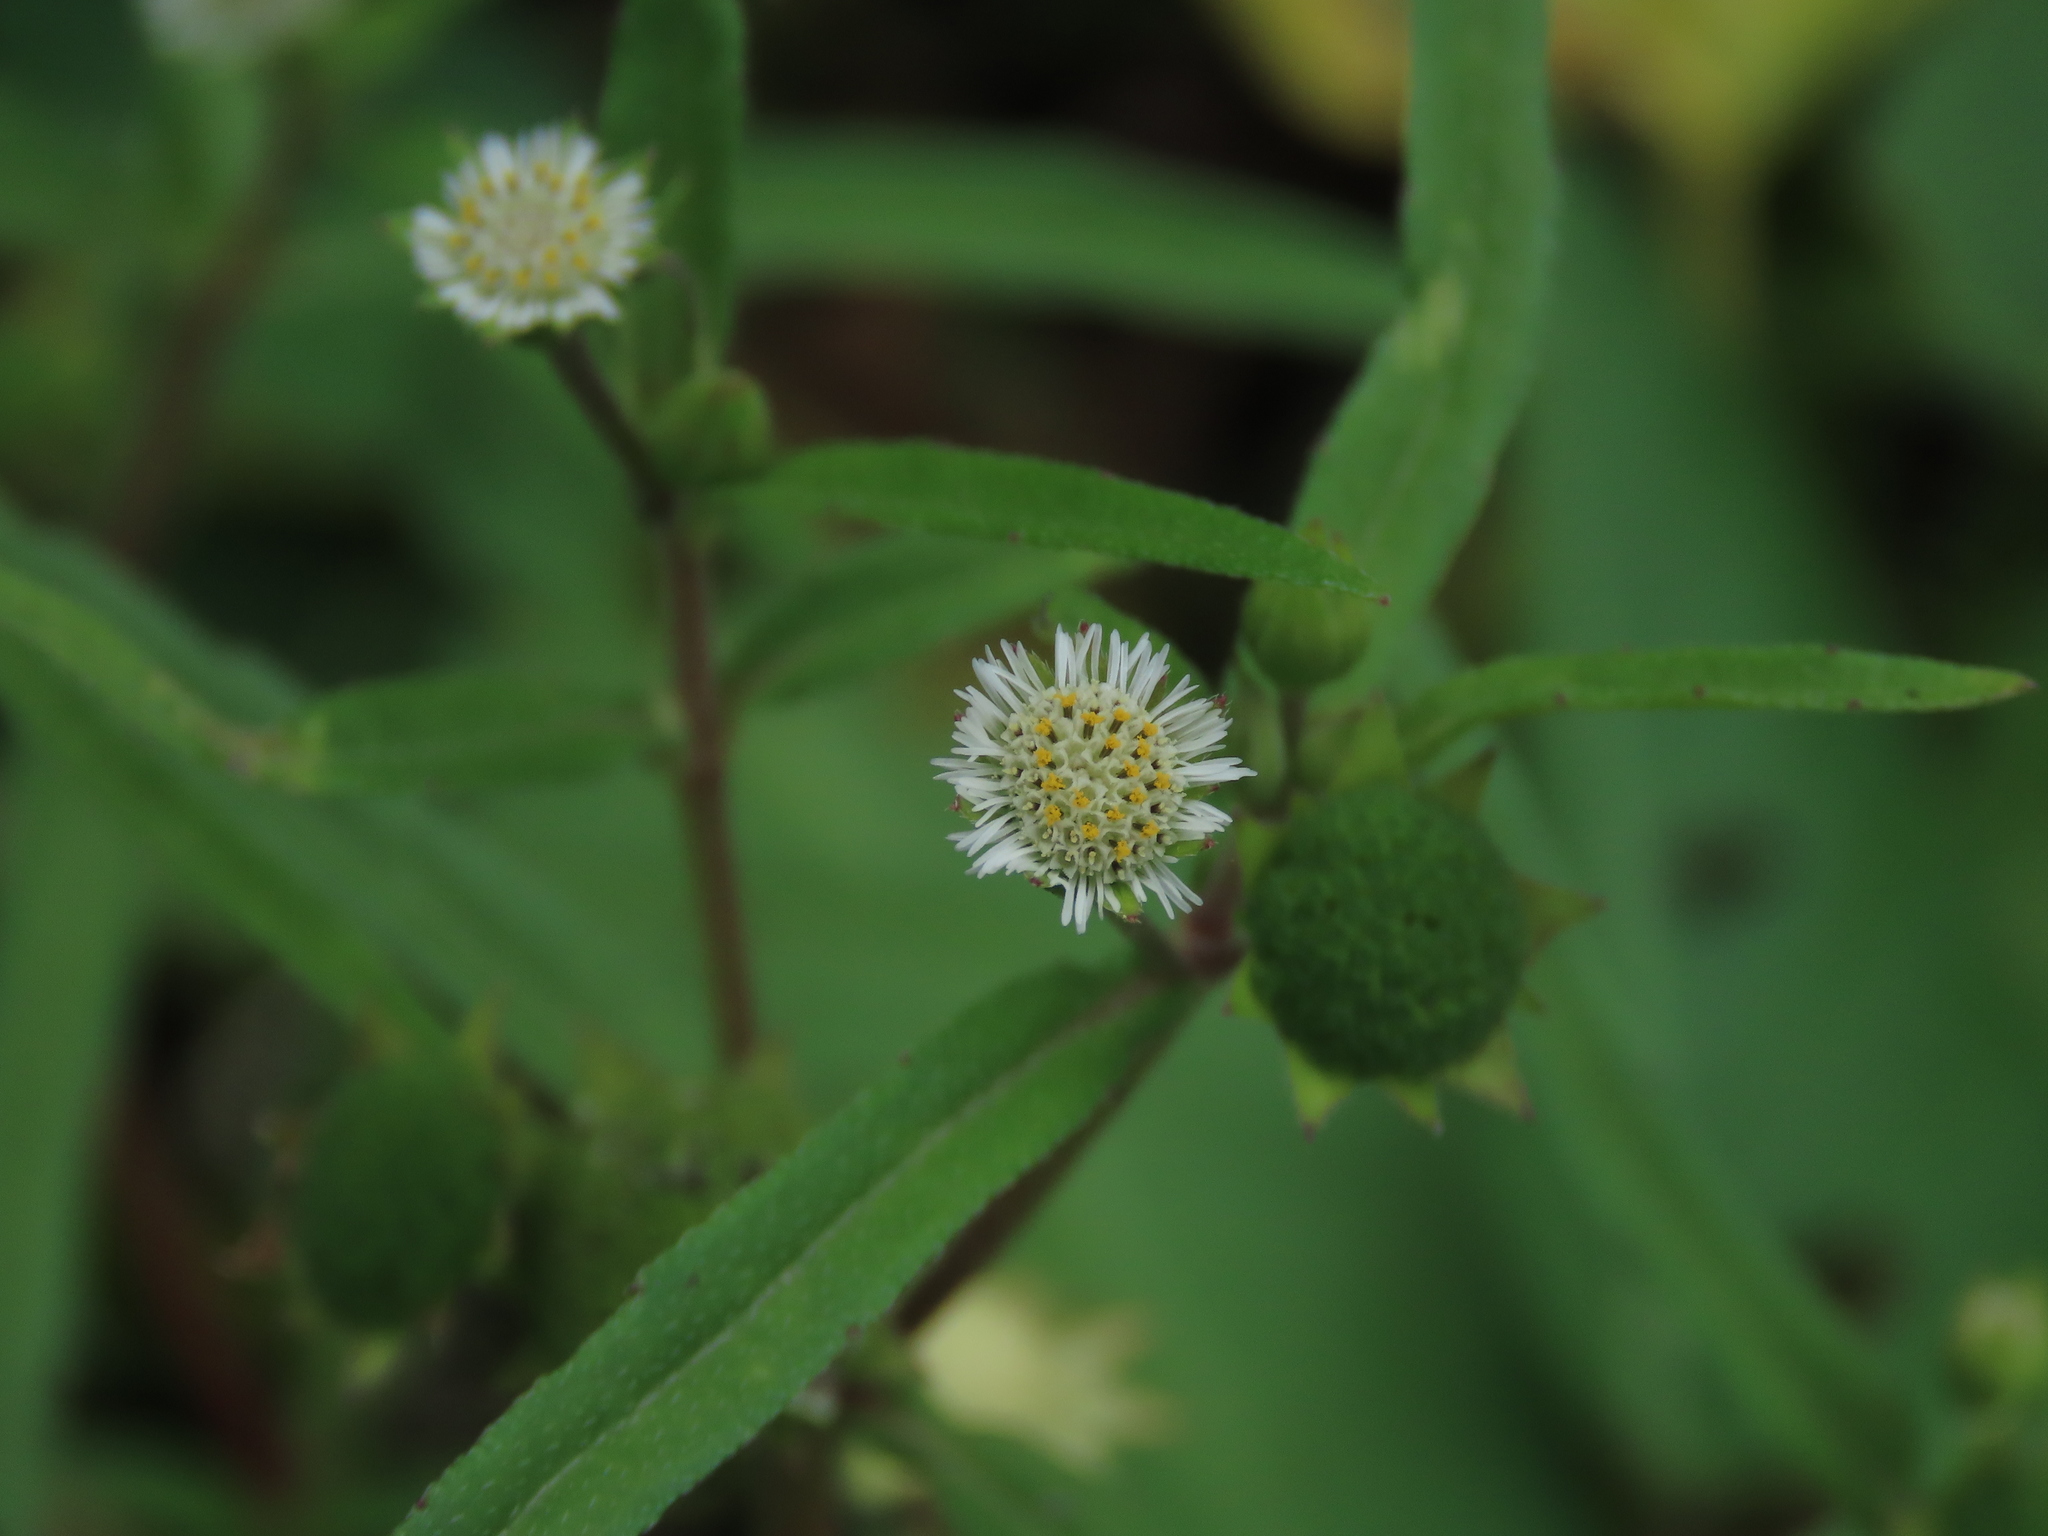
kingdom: Plantae
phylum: Tracheophyta
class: Magnoliopsida
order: Asterales
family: Asteraceae
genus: Eclipta
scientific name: Eclipta prostrata
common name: False daisy
